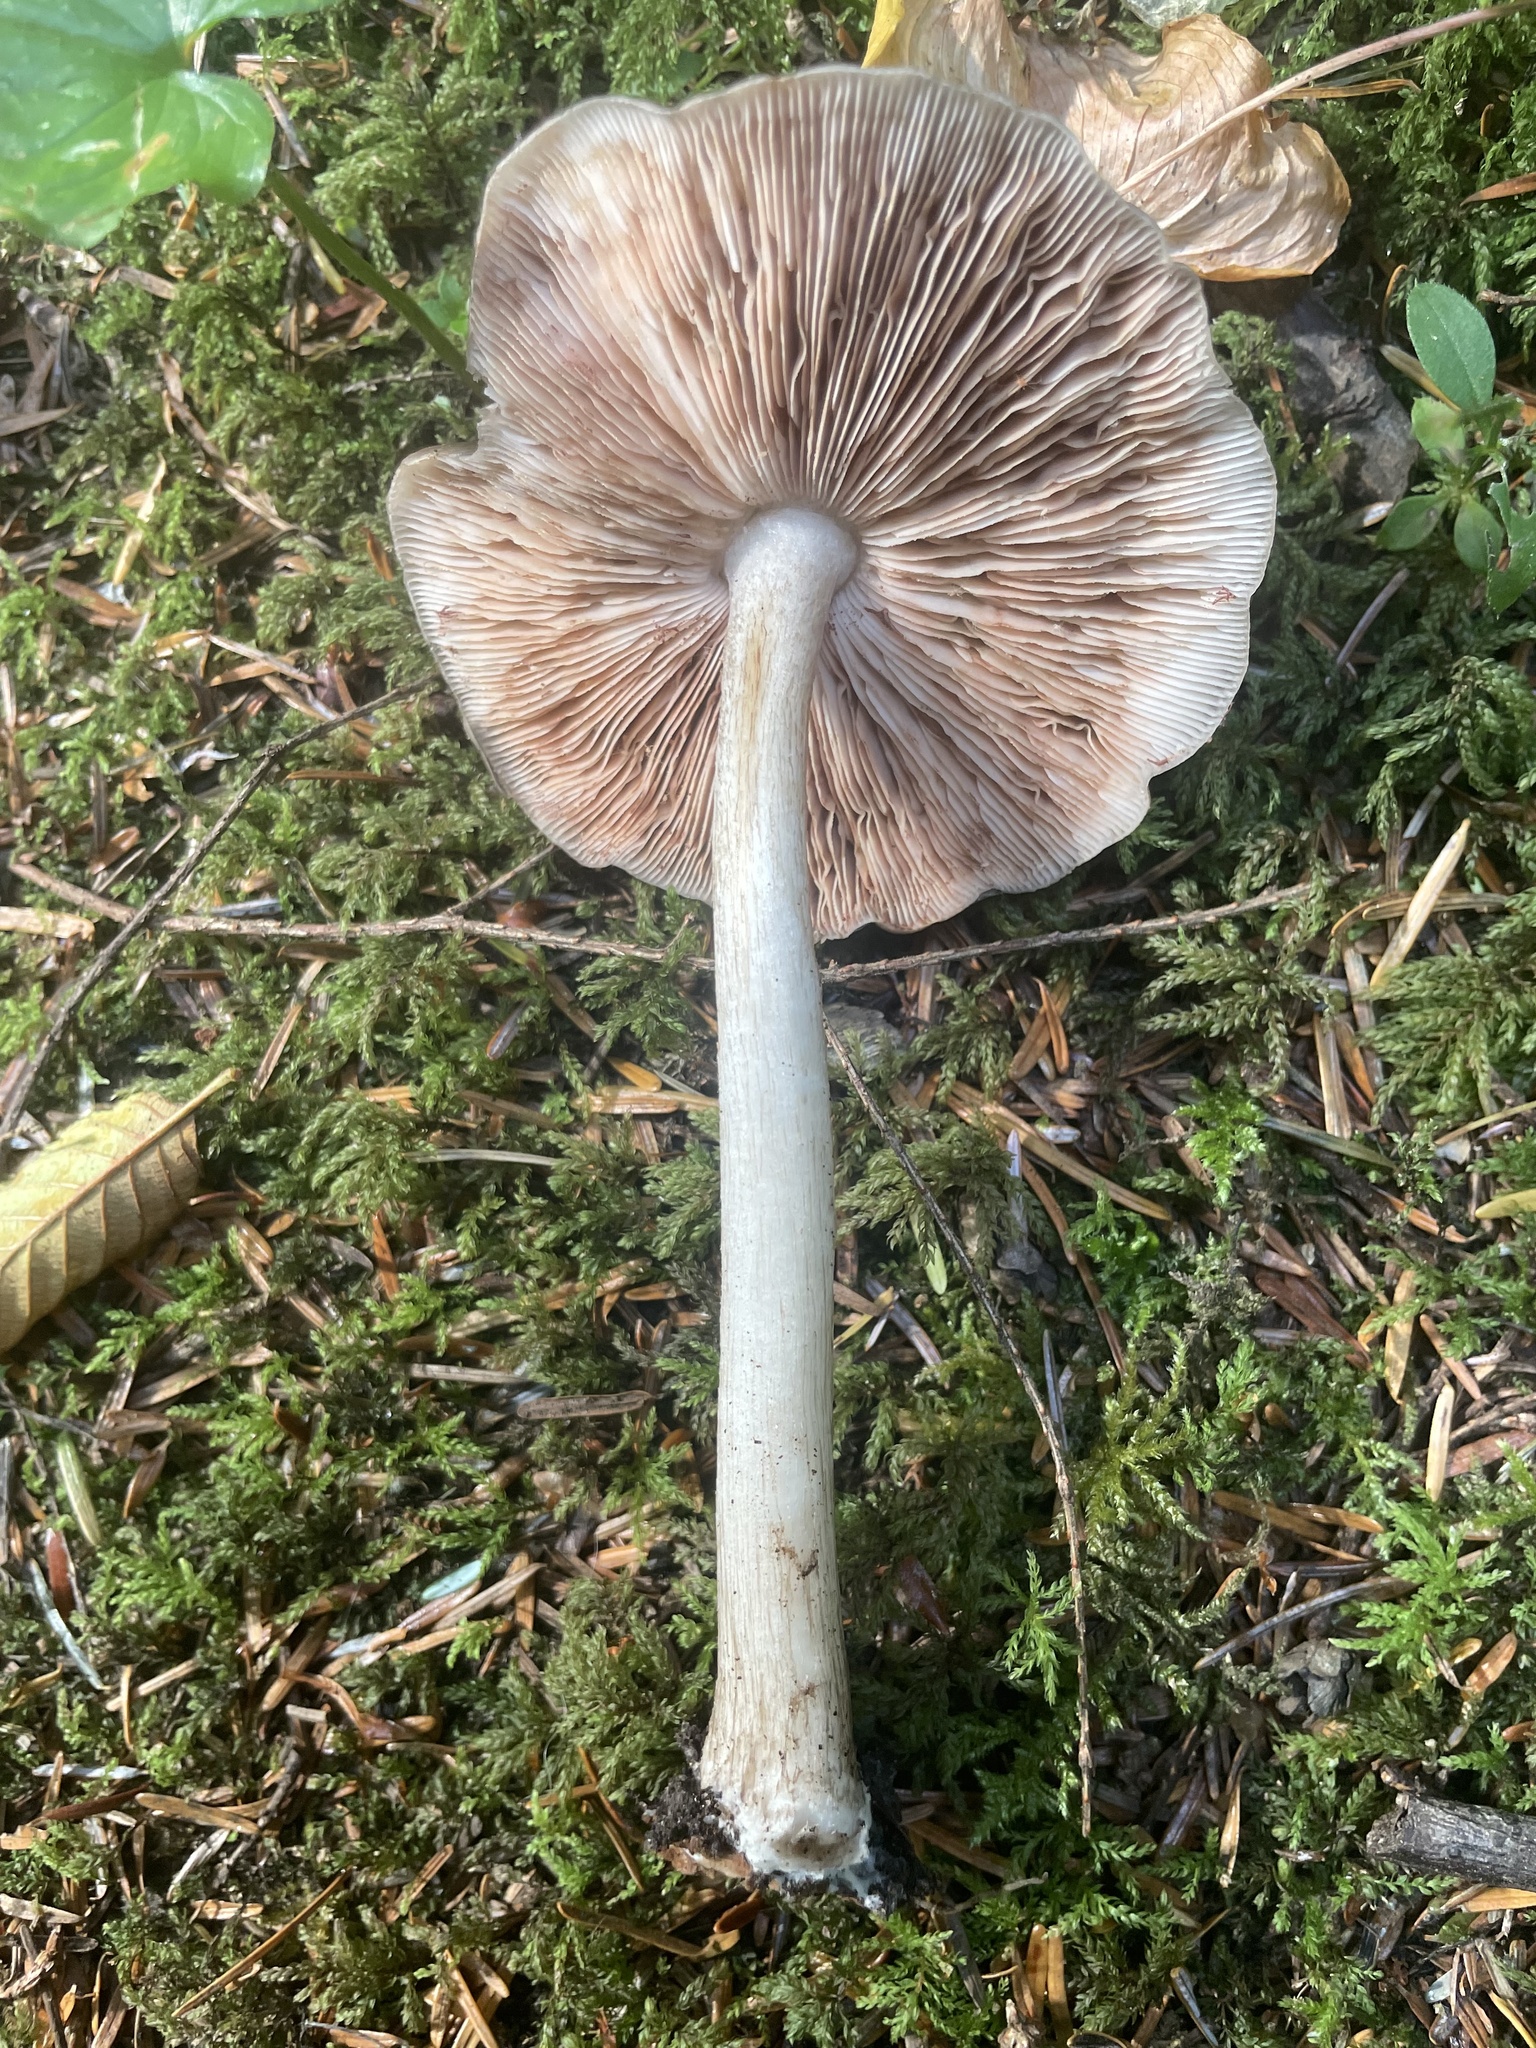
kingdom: Fungi
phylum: Basidiomycota
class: Agaricomycetes
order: Agaricales
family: Pluteaceae
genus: Pluteus
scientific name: Pluteus cervinus
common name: Deer shield
